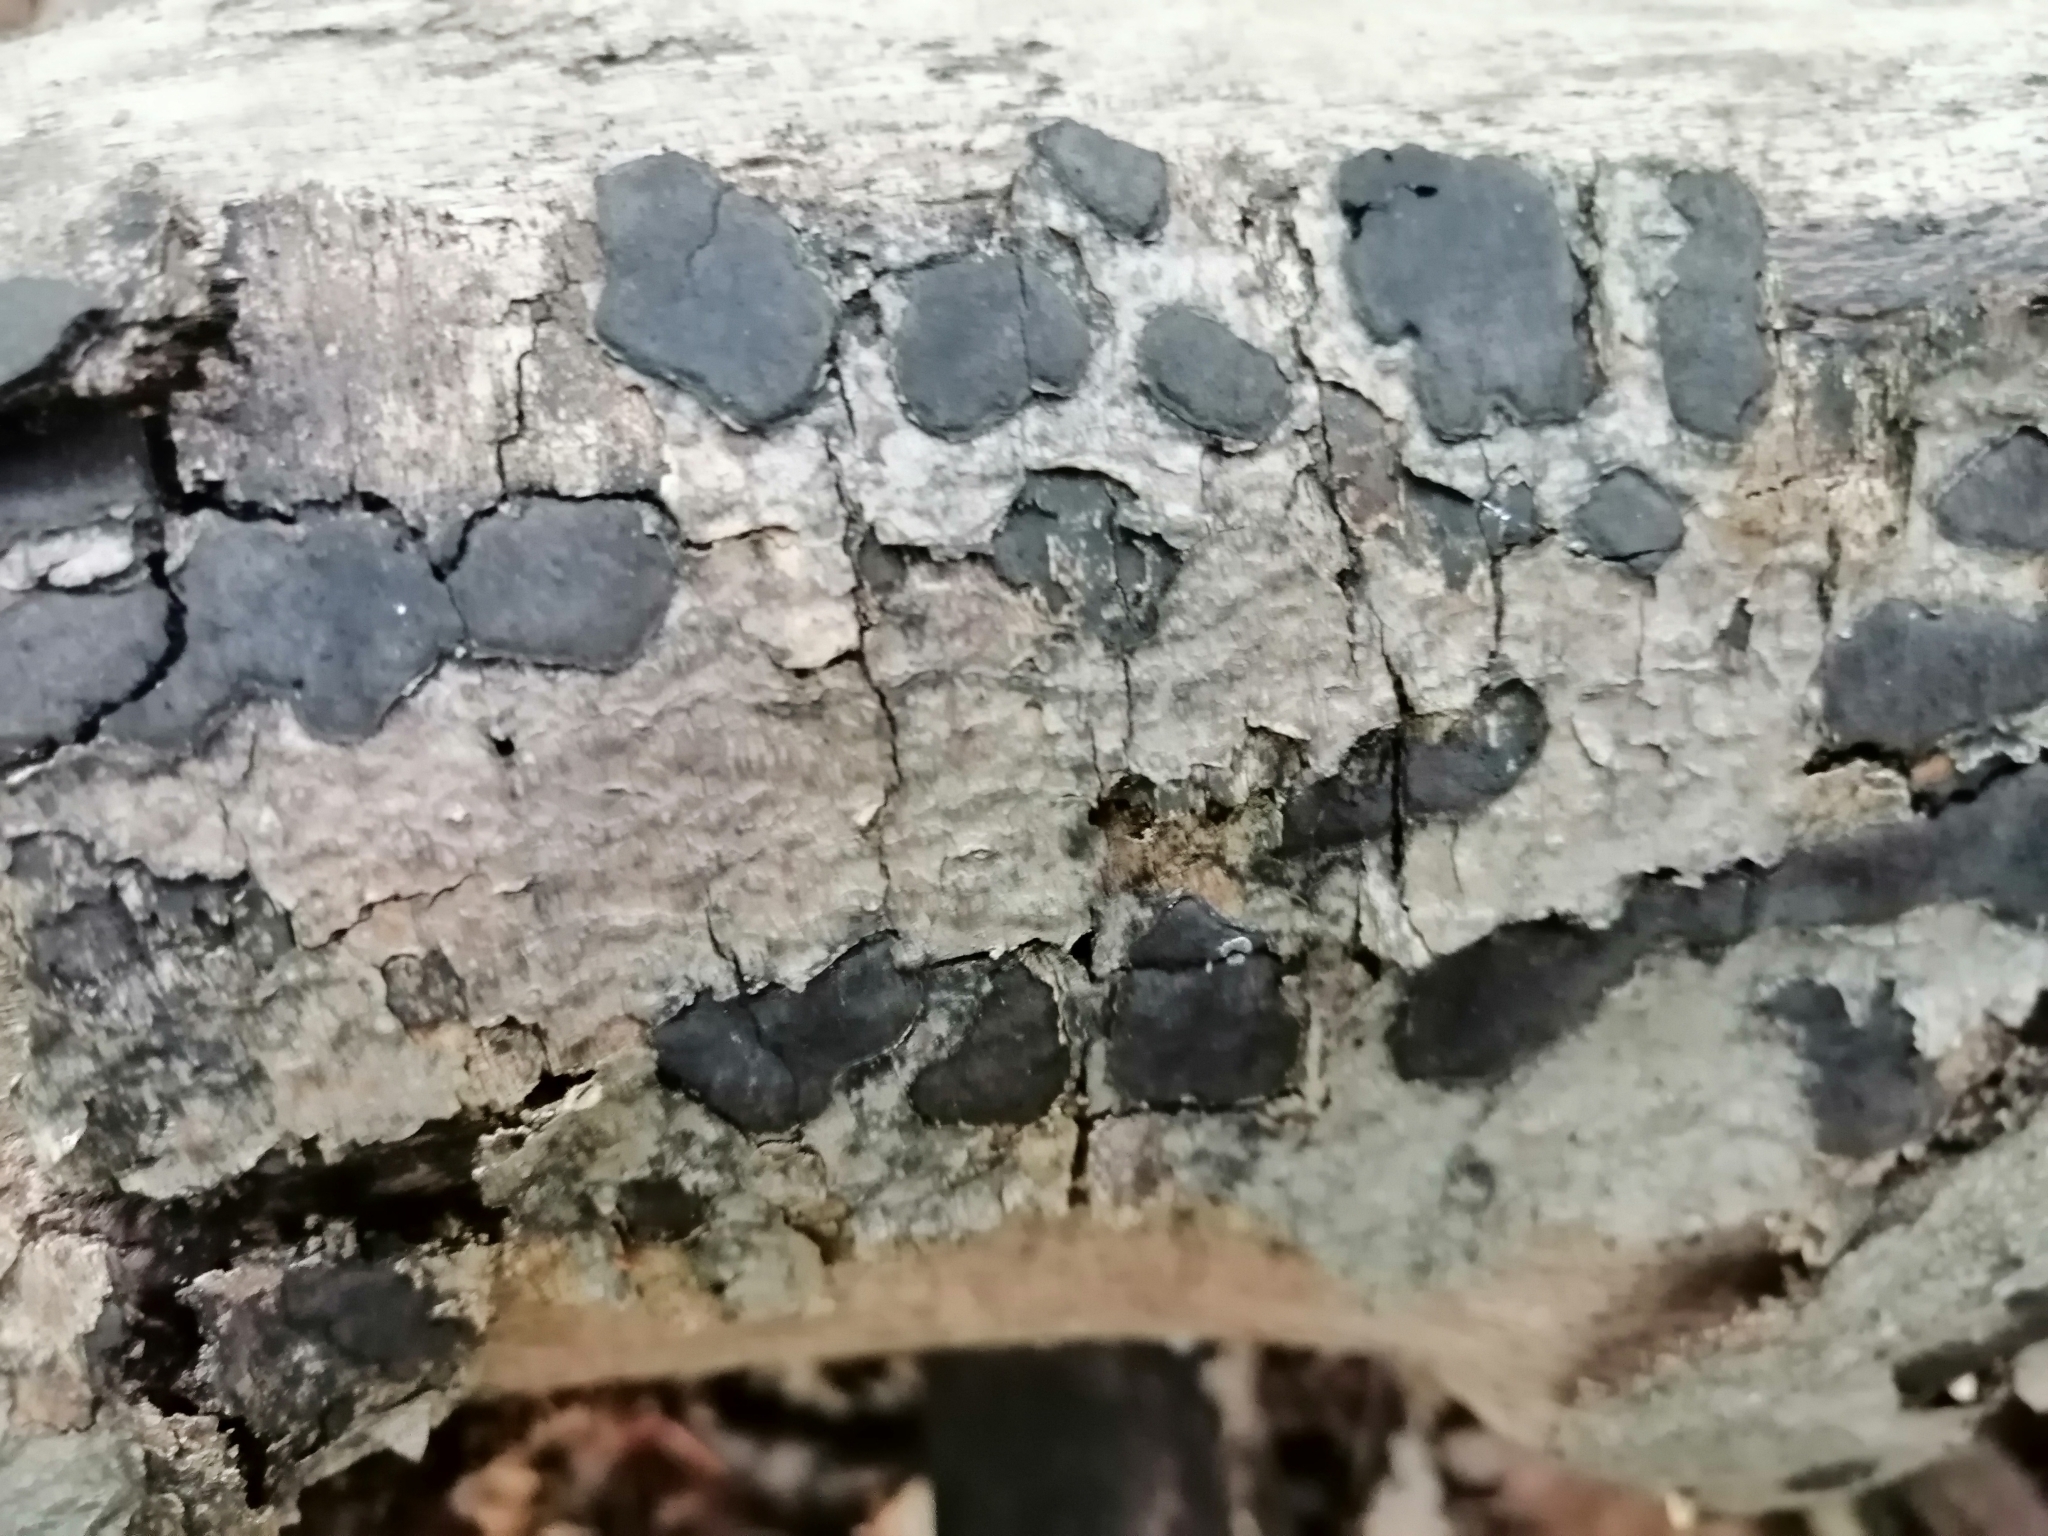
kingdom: Fungi
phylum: Ascomycota
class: Sordariomycetes
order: Xylariales
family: Graphostromataceae
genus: Biscogniauxia
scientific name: Biscogniauxia nummularia
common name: Beech tarcrust
